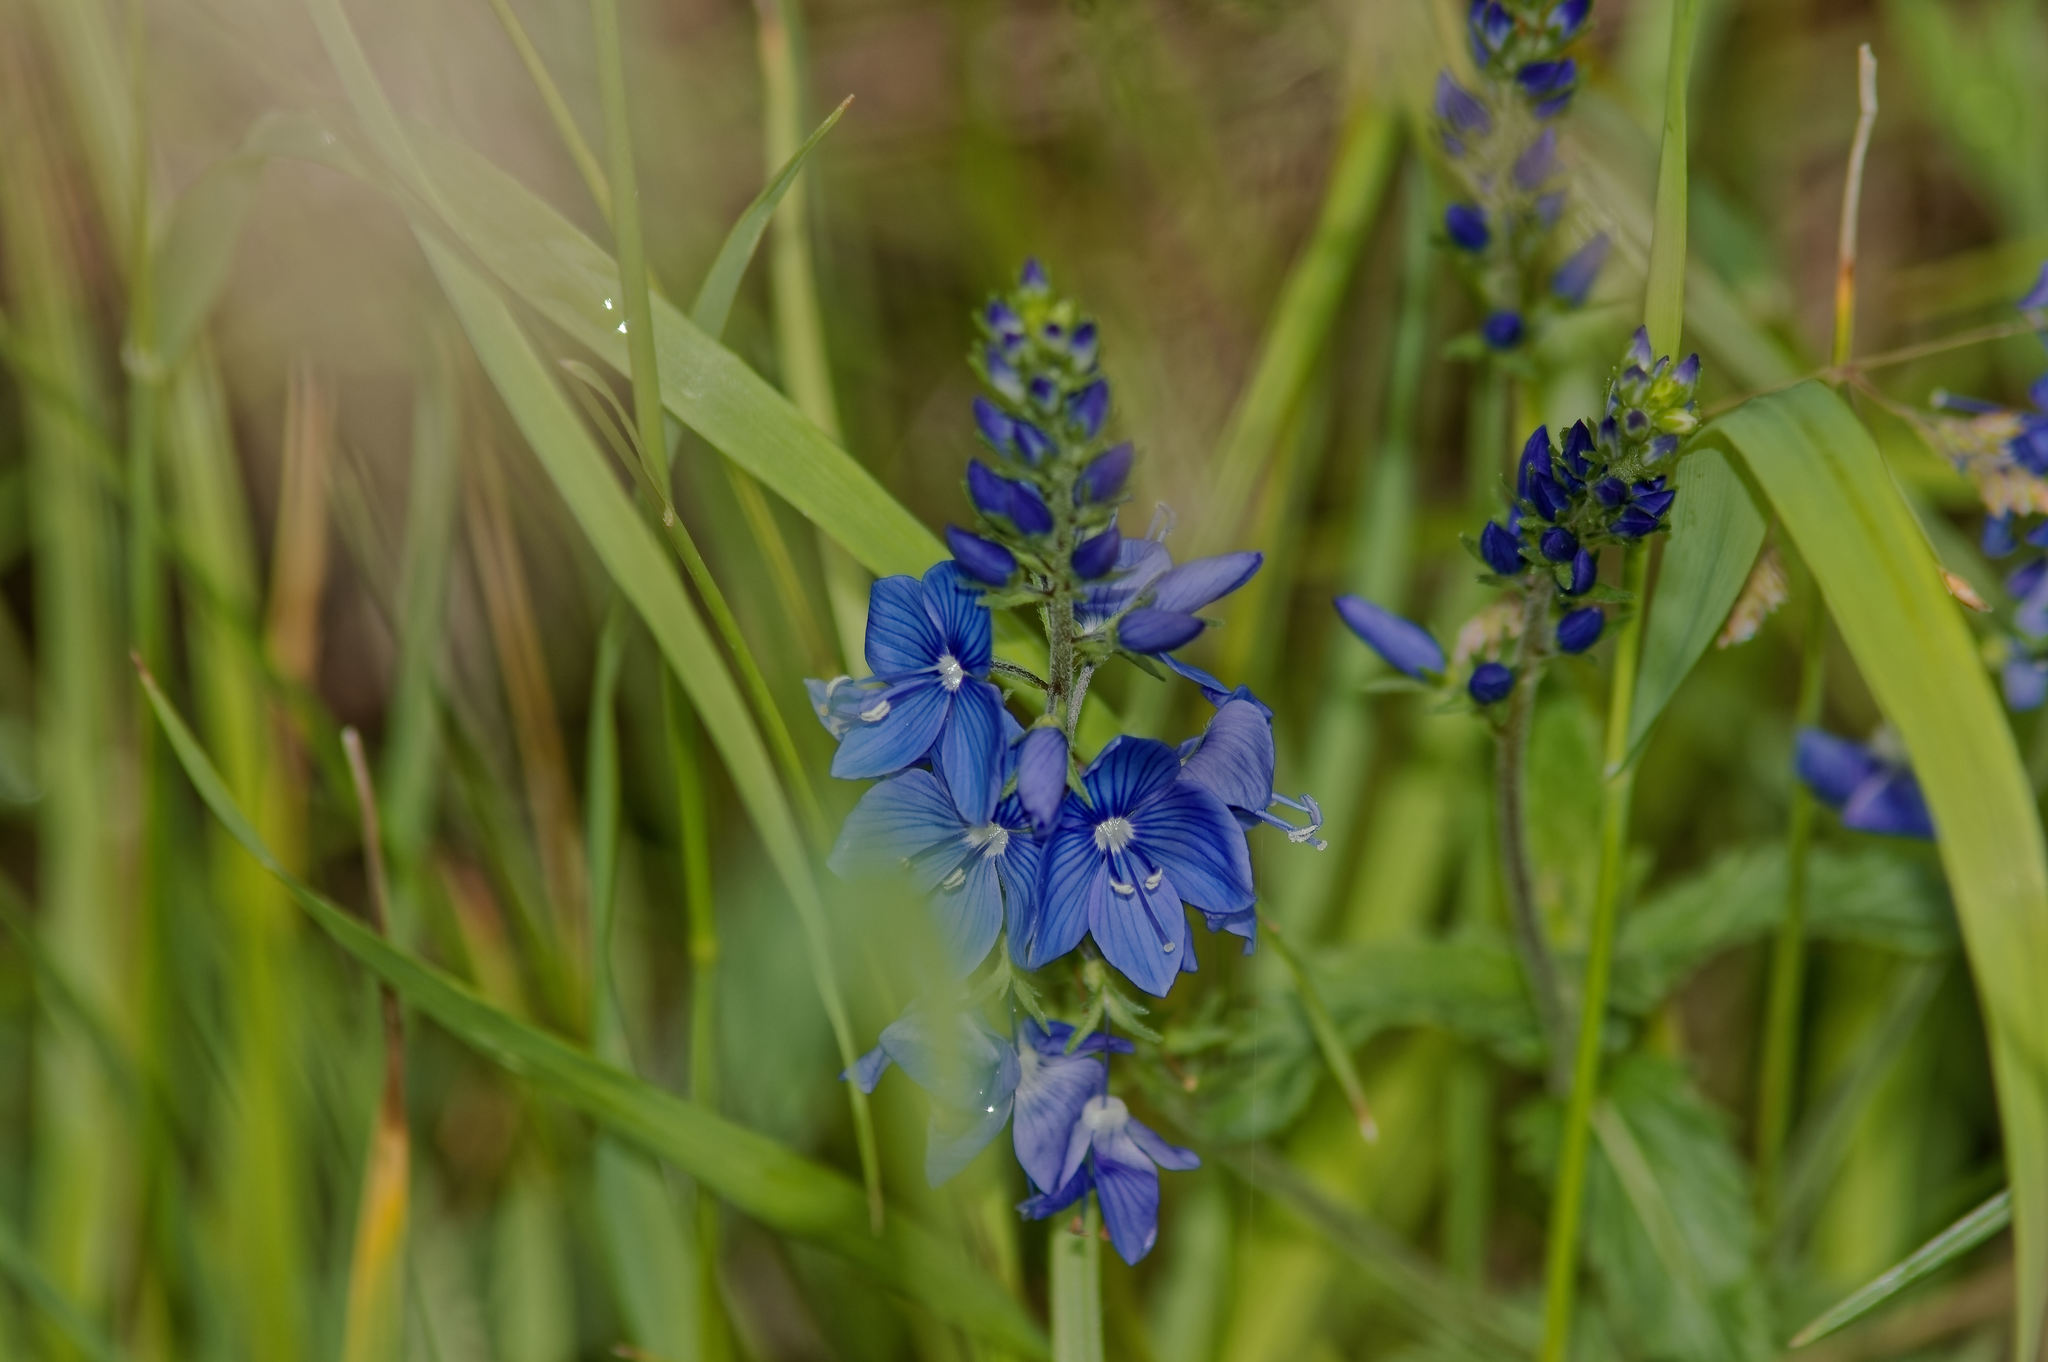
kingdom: Plantae
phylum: Tracheophyta
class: Magnoliopsida
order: Lamiales
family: Plantaginaceae
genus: Veronica
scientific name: Veronica teucrium
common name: Large speedwell
